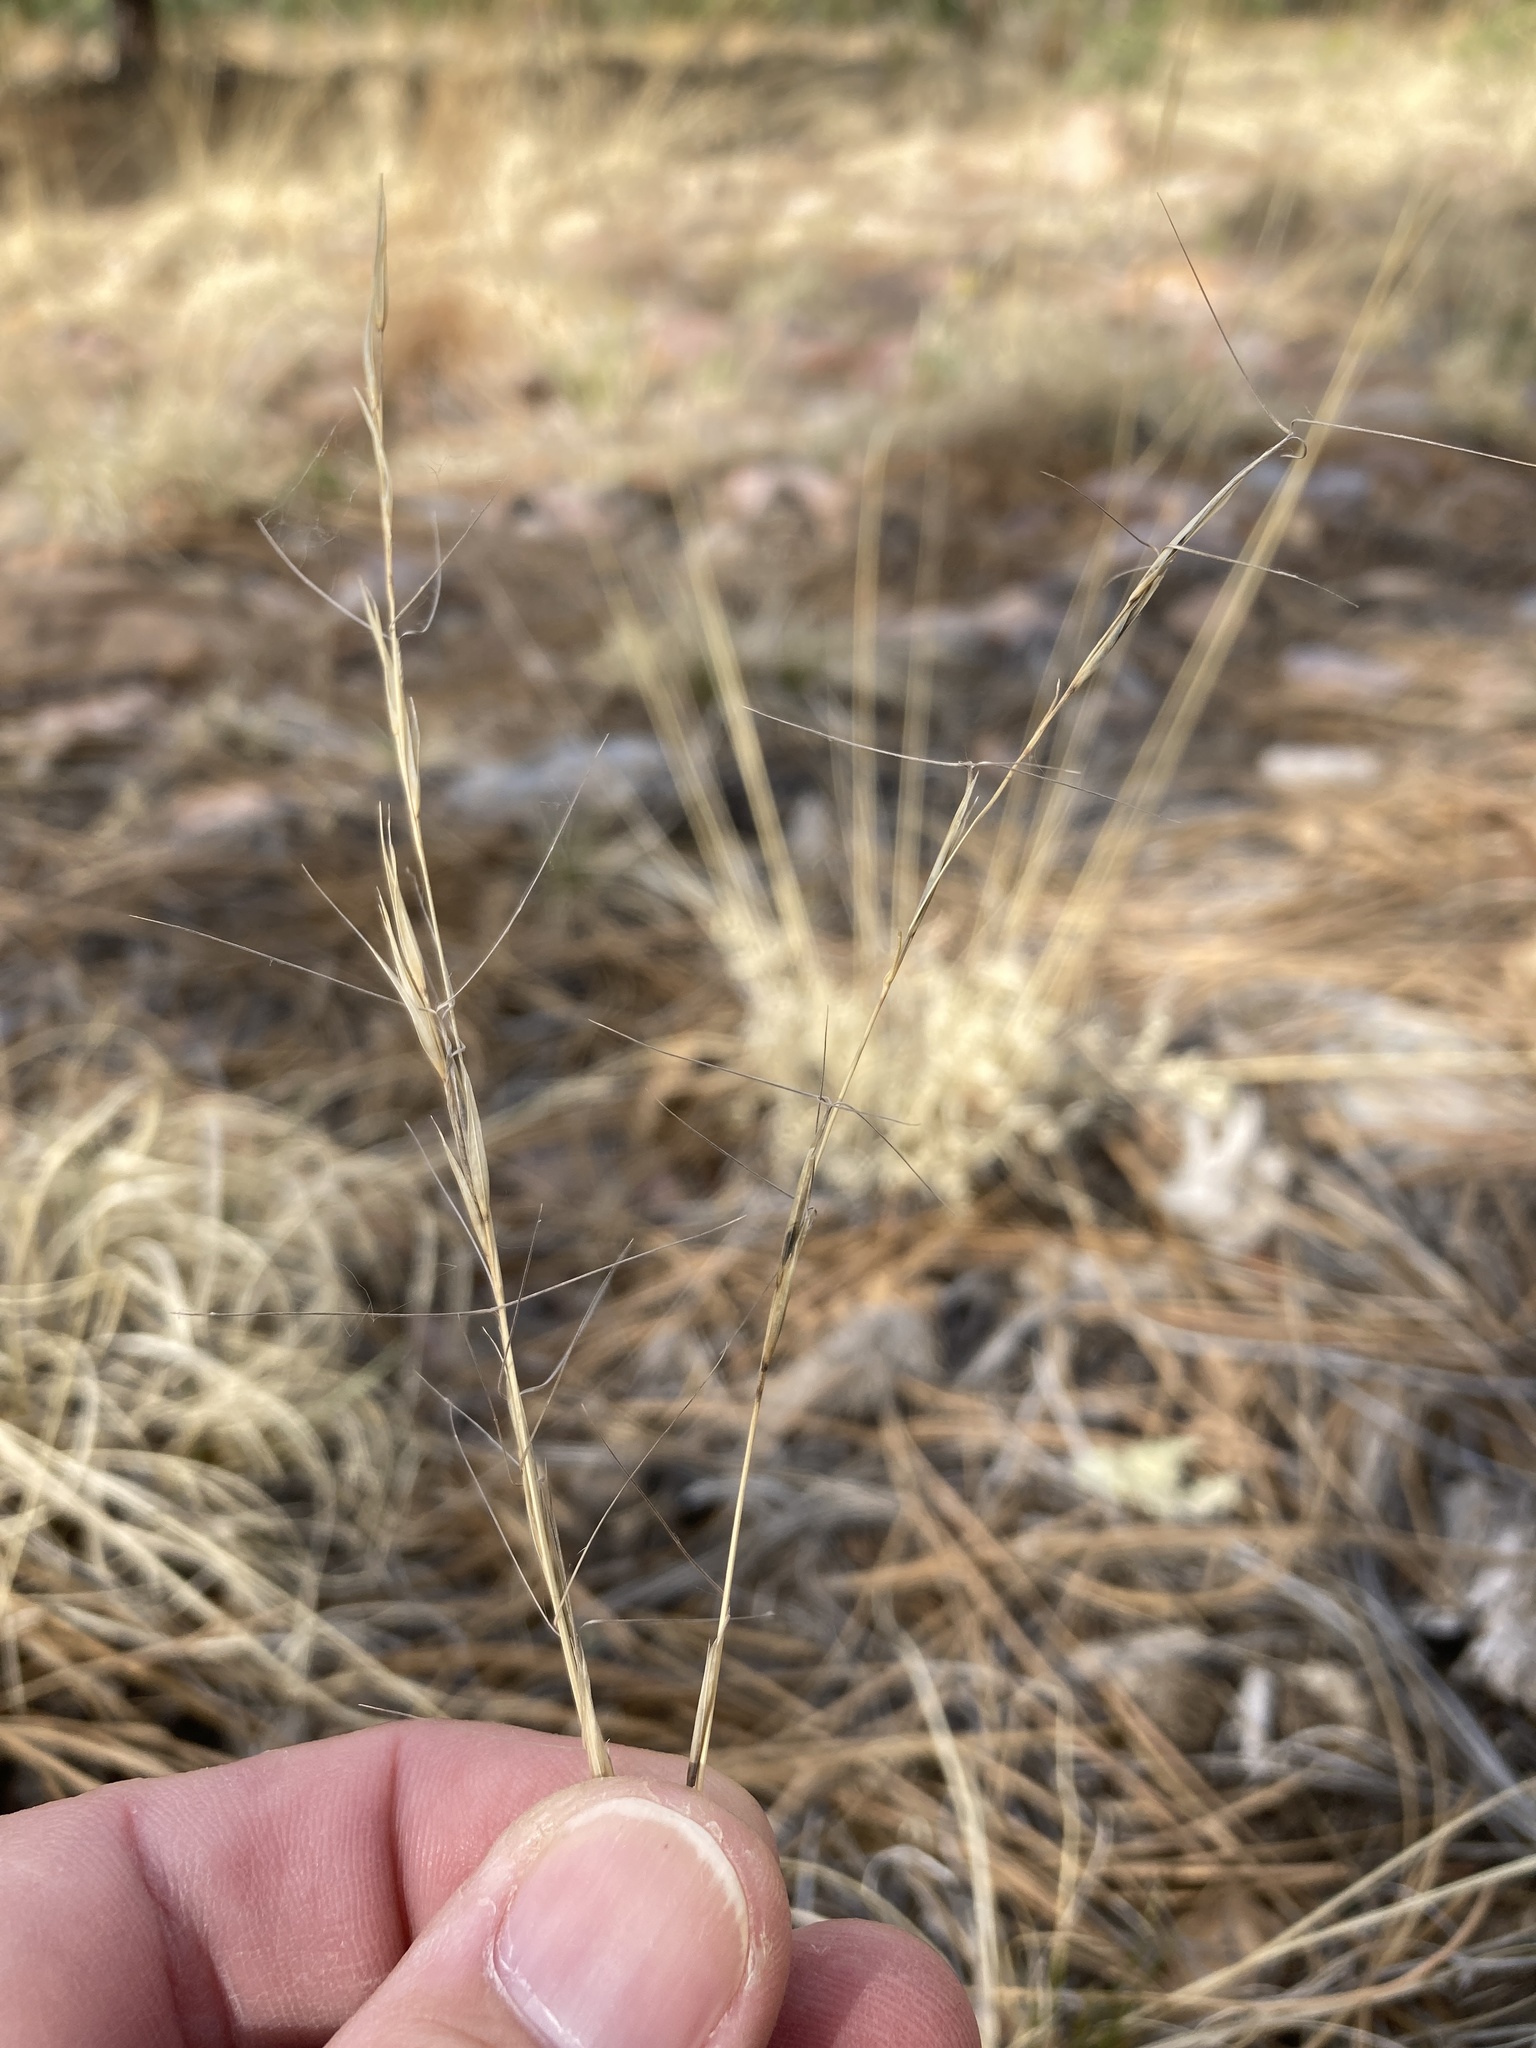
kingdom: Plantae
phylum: Tracheophyta
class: Liliopsida
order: Poales
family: Poaceae
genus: Aristida
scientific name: Aristida arizonica
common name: Arizona threeawn
